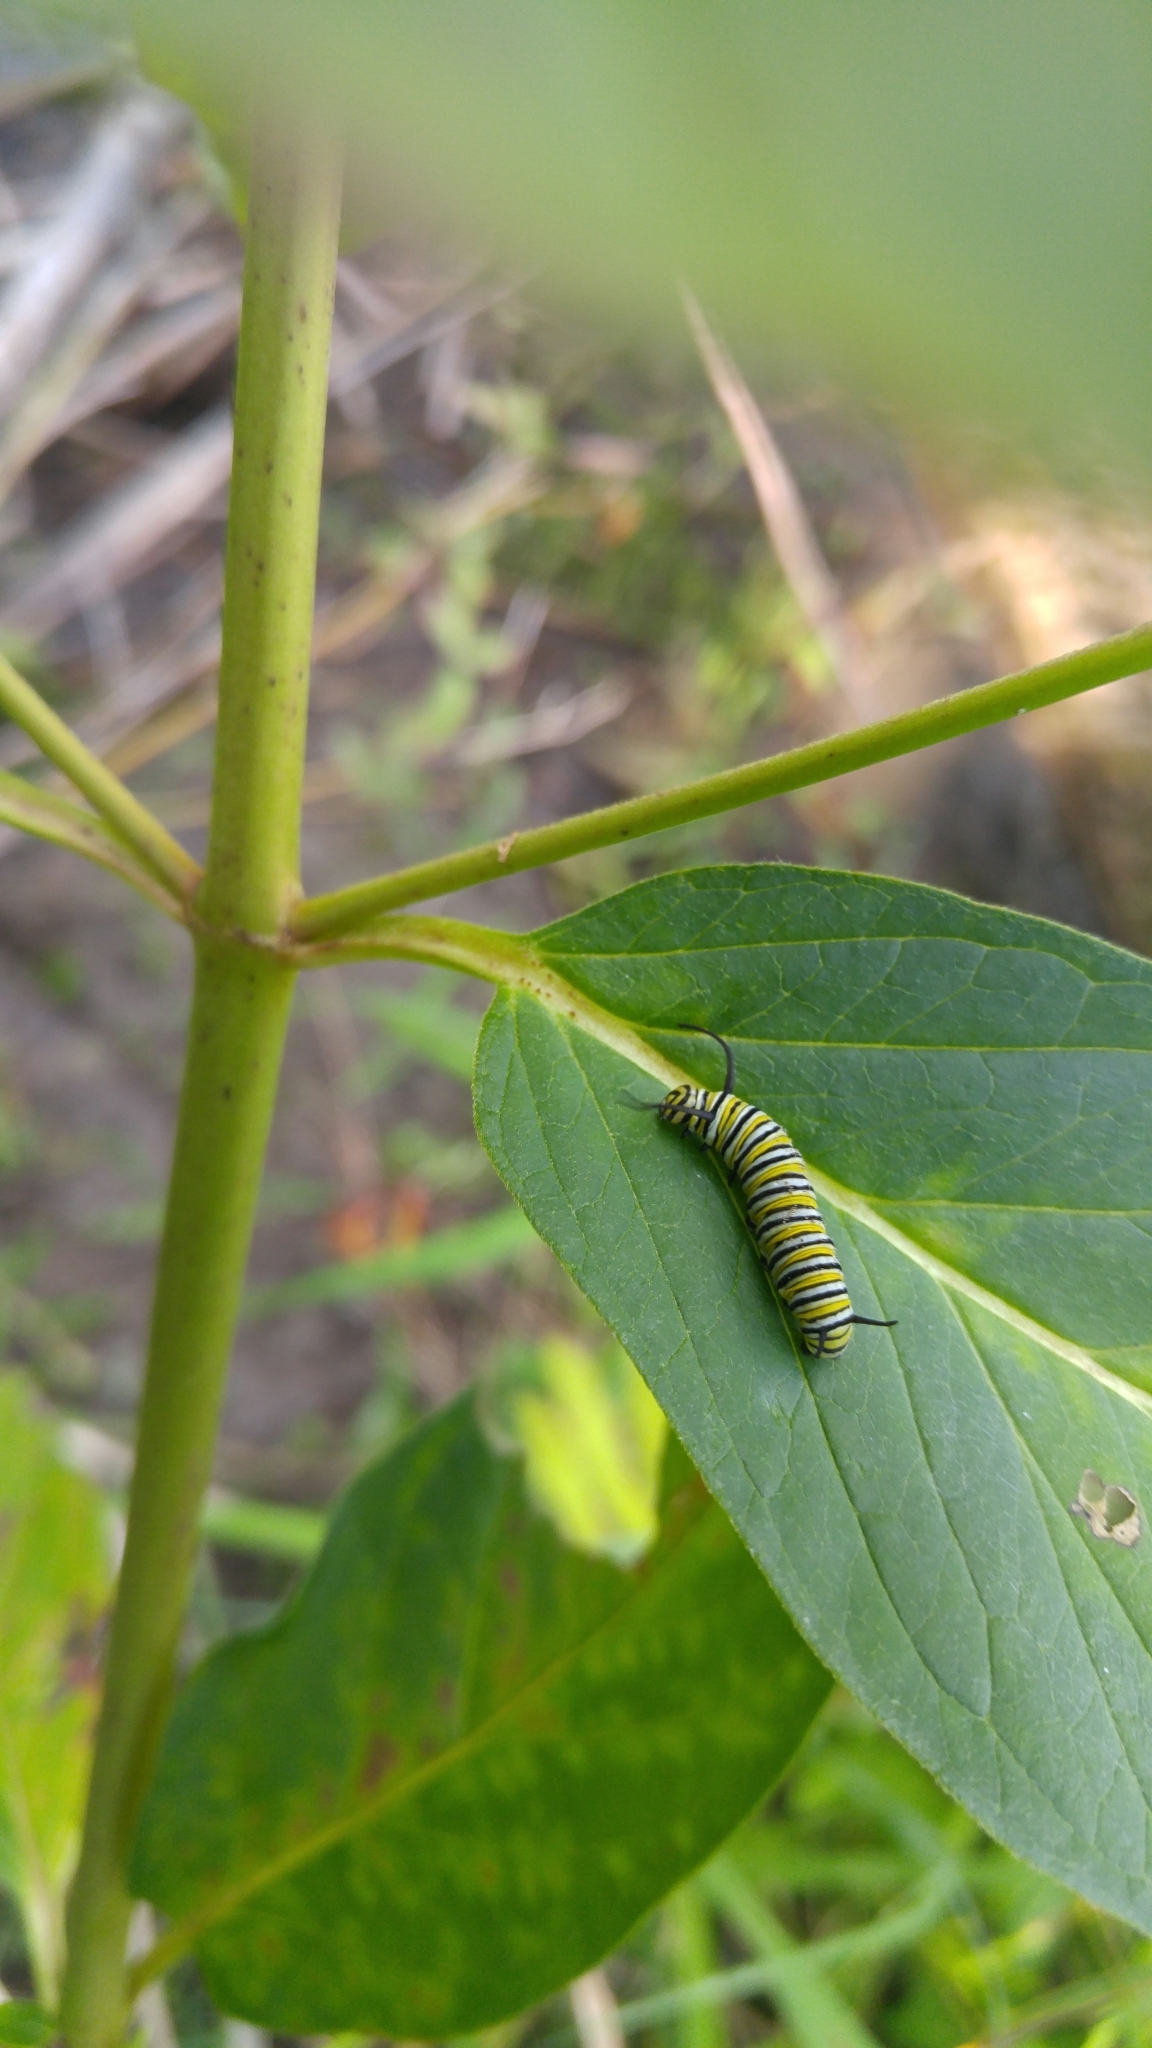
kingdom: Animalia
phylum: Arthropoda
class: Insecta
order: Lepidoptera
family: Nymphalidae
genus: Danaus
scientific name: Danaus plexippus
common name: Monarch
